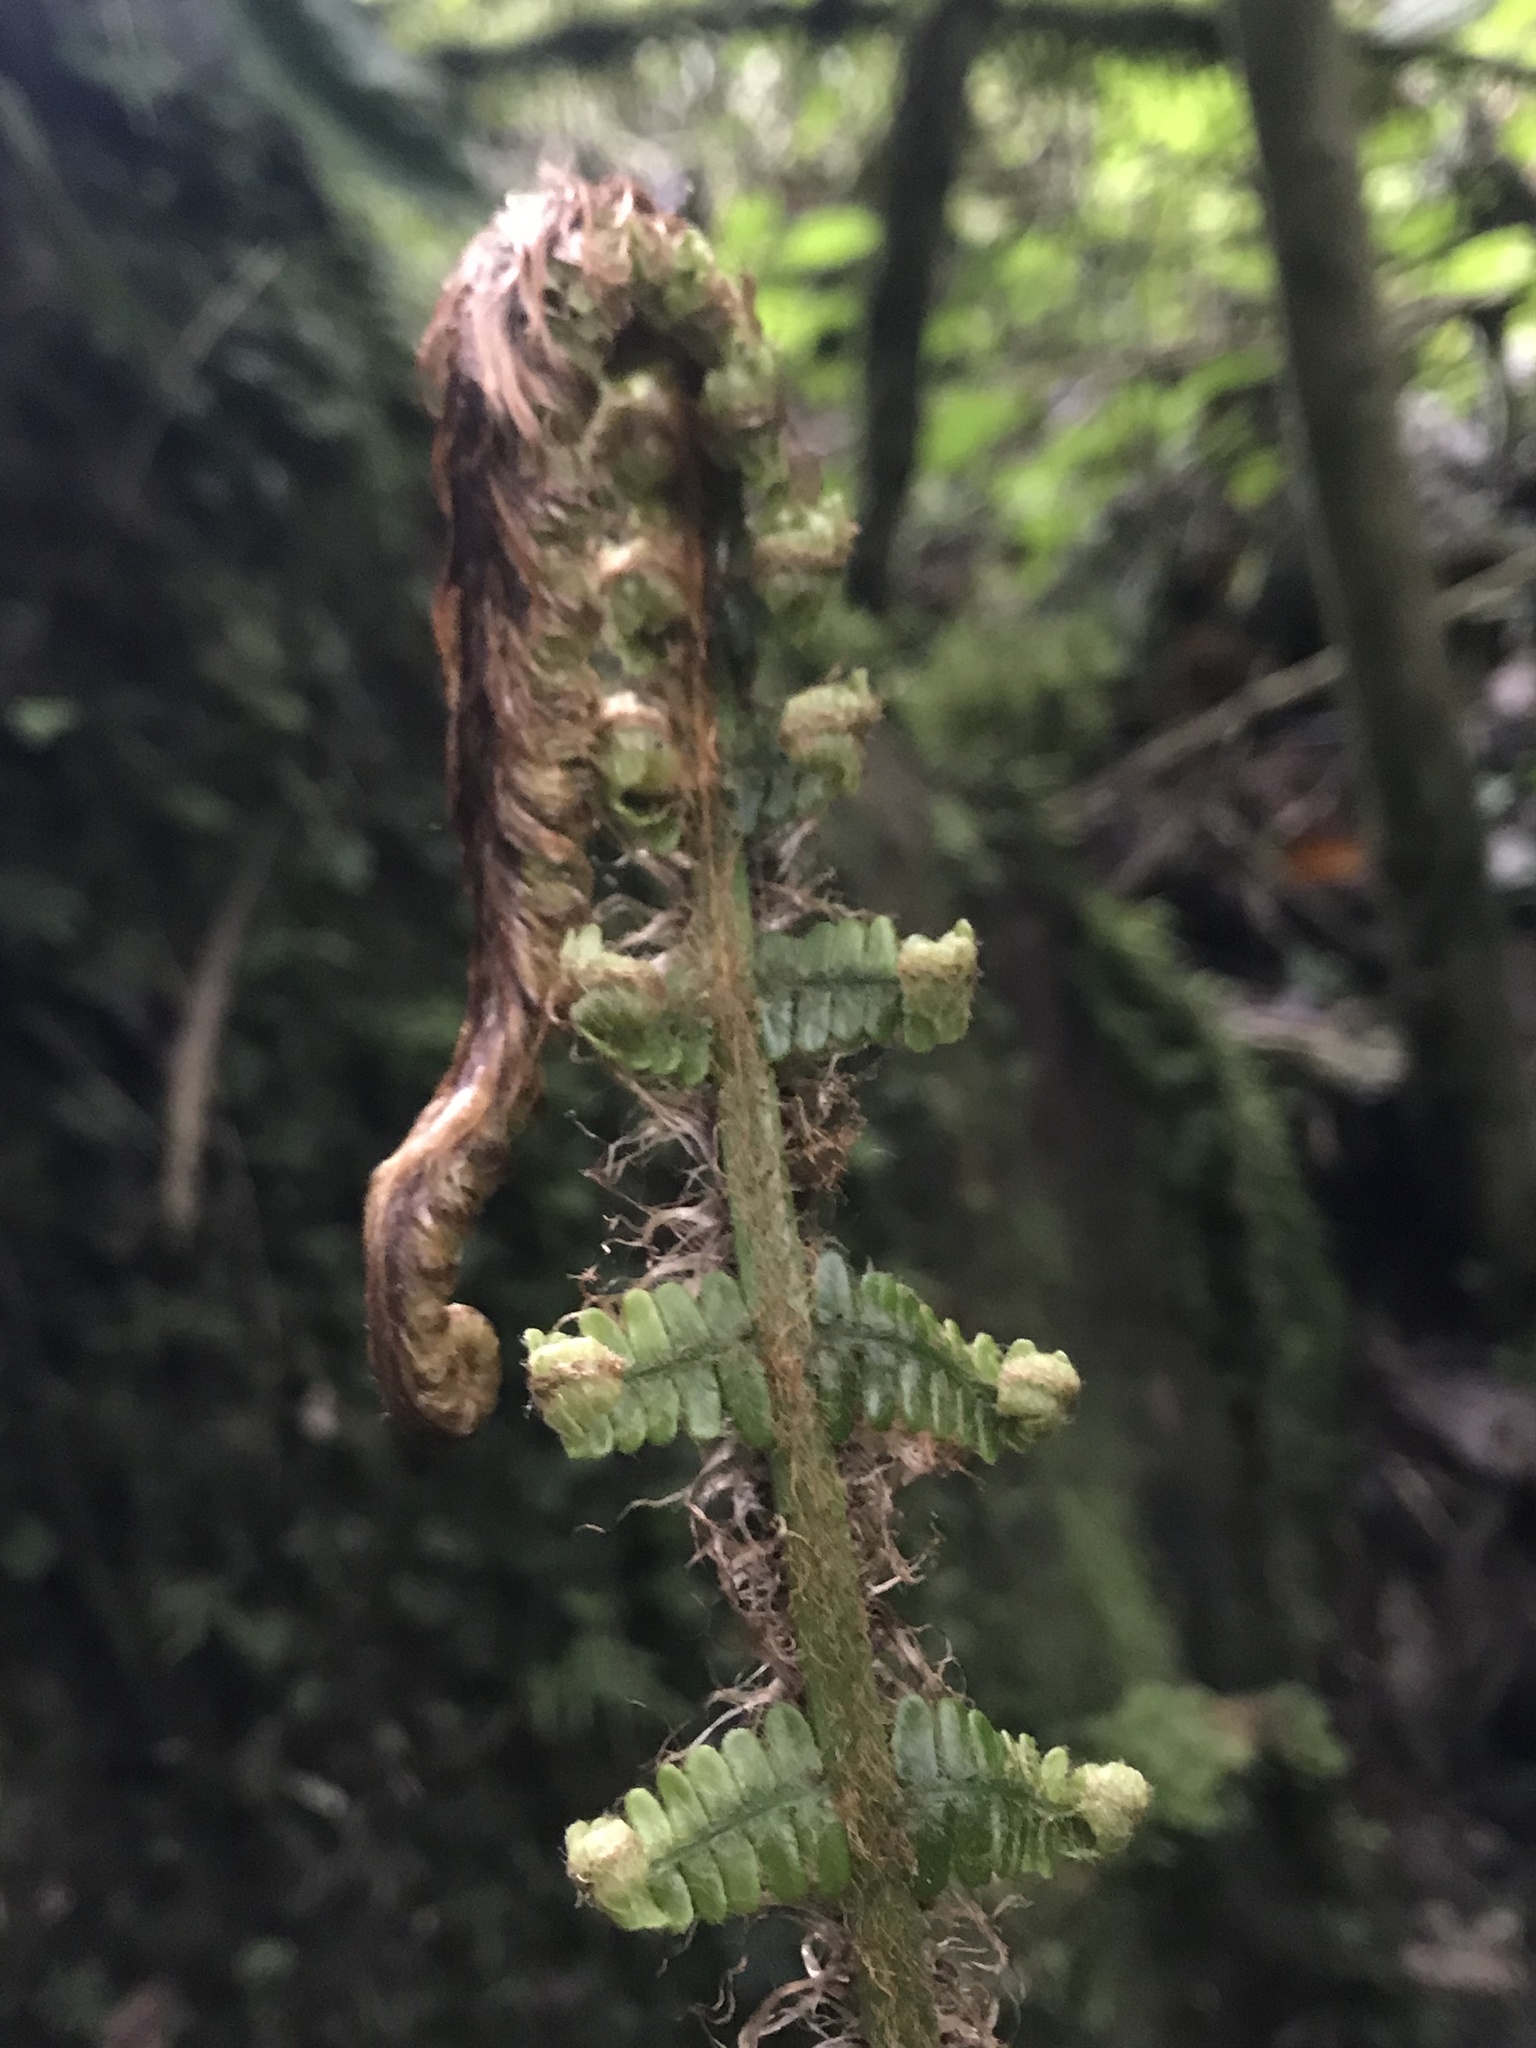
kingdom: Plantae
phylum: Tracheophyta
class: Polypodiopsida
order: Polypodiales
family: Dryopteridaceae
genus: Dryopteris
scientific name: Dryopteris wallichiana
